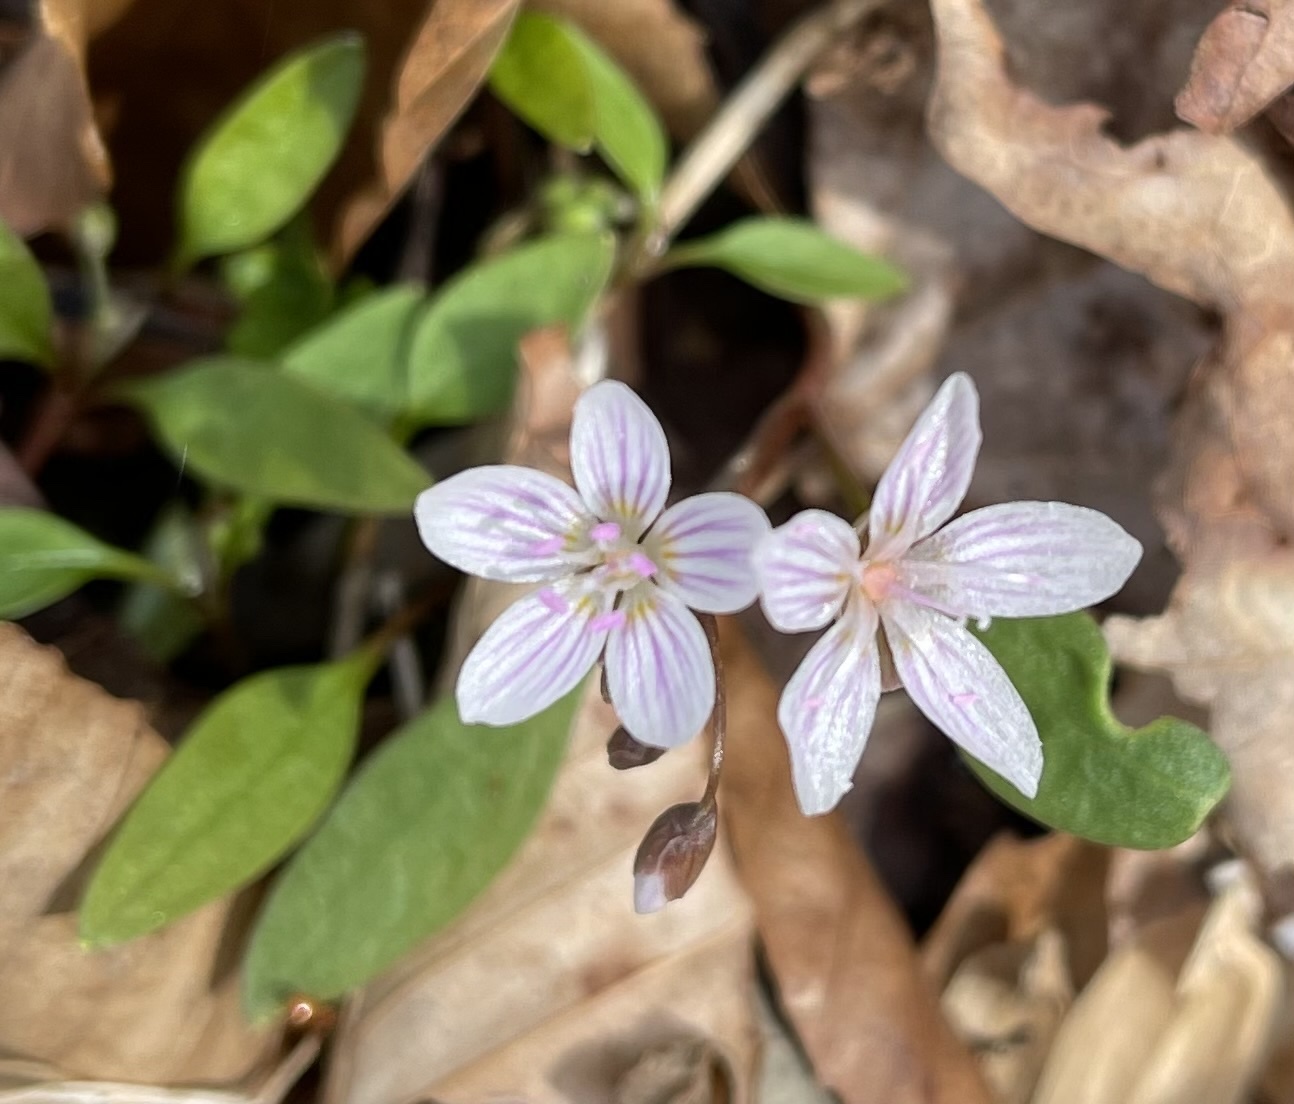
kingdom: Plantae
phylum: Tracheophyta
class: Magnoliopsida
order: Caryophyllales
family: Montiaceae
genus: Claytonia
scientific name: Claytonia caroliniana
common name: Carolina spring beauty
